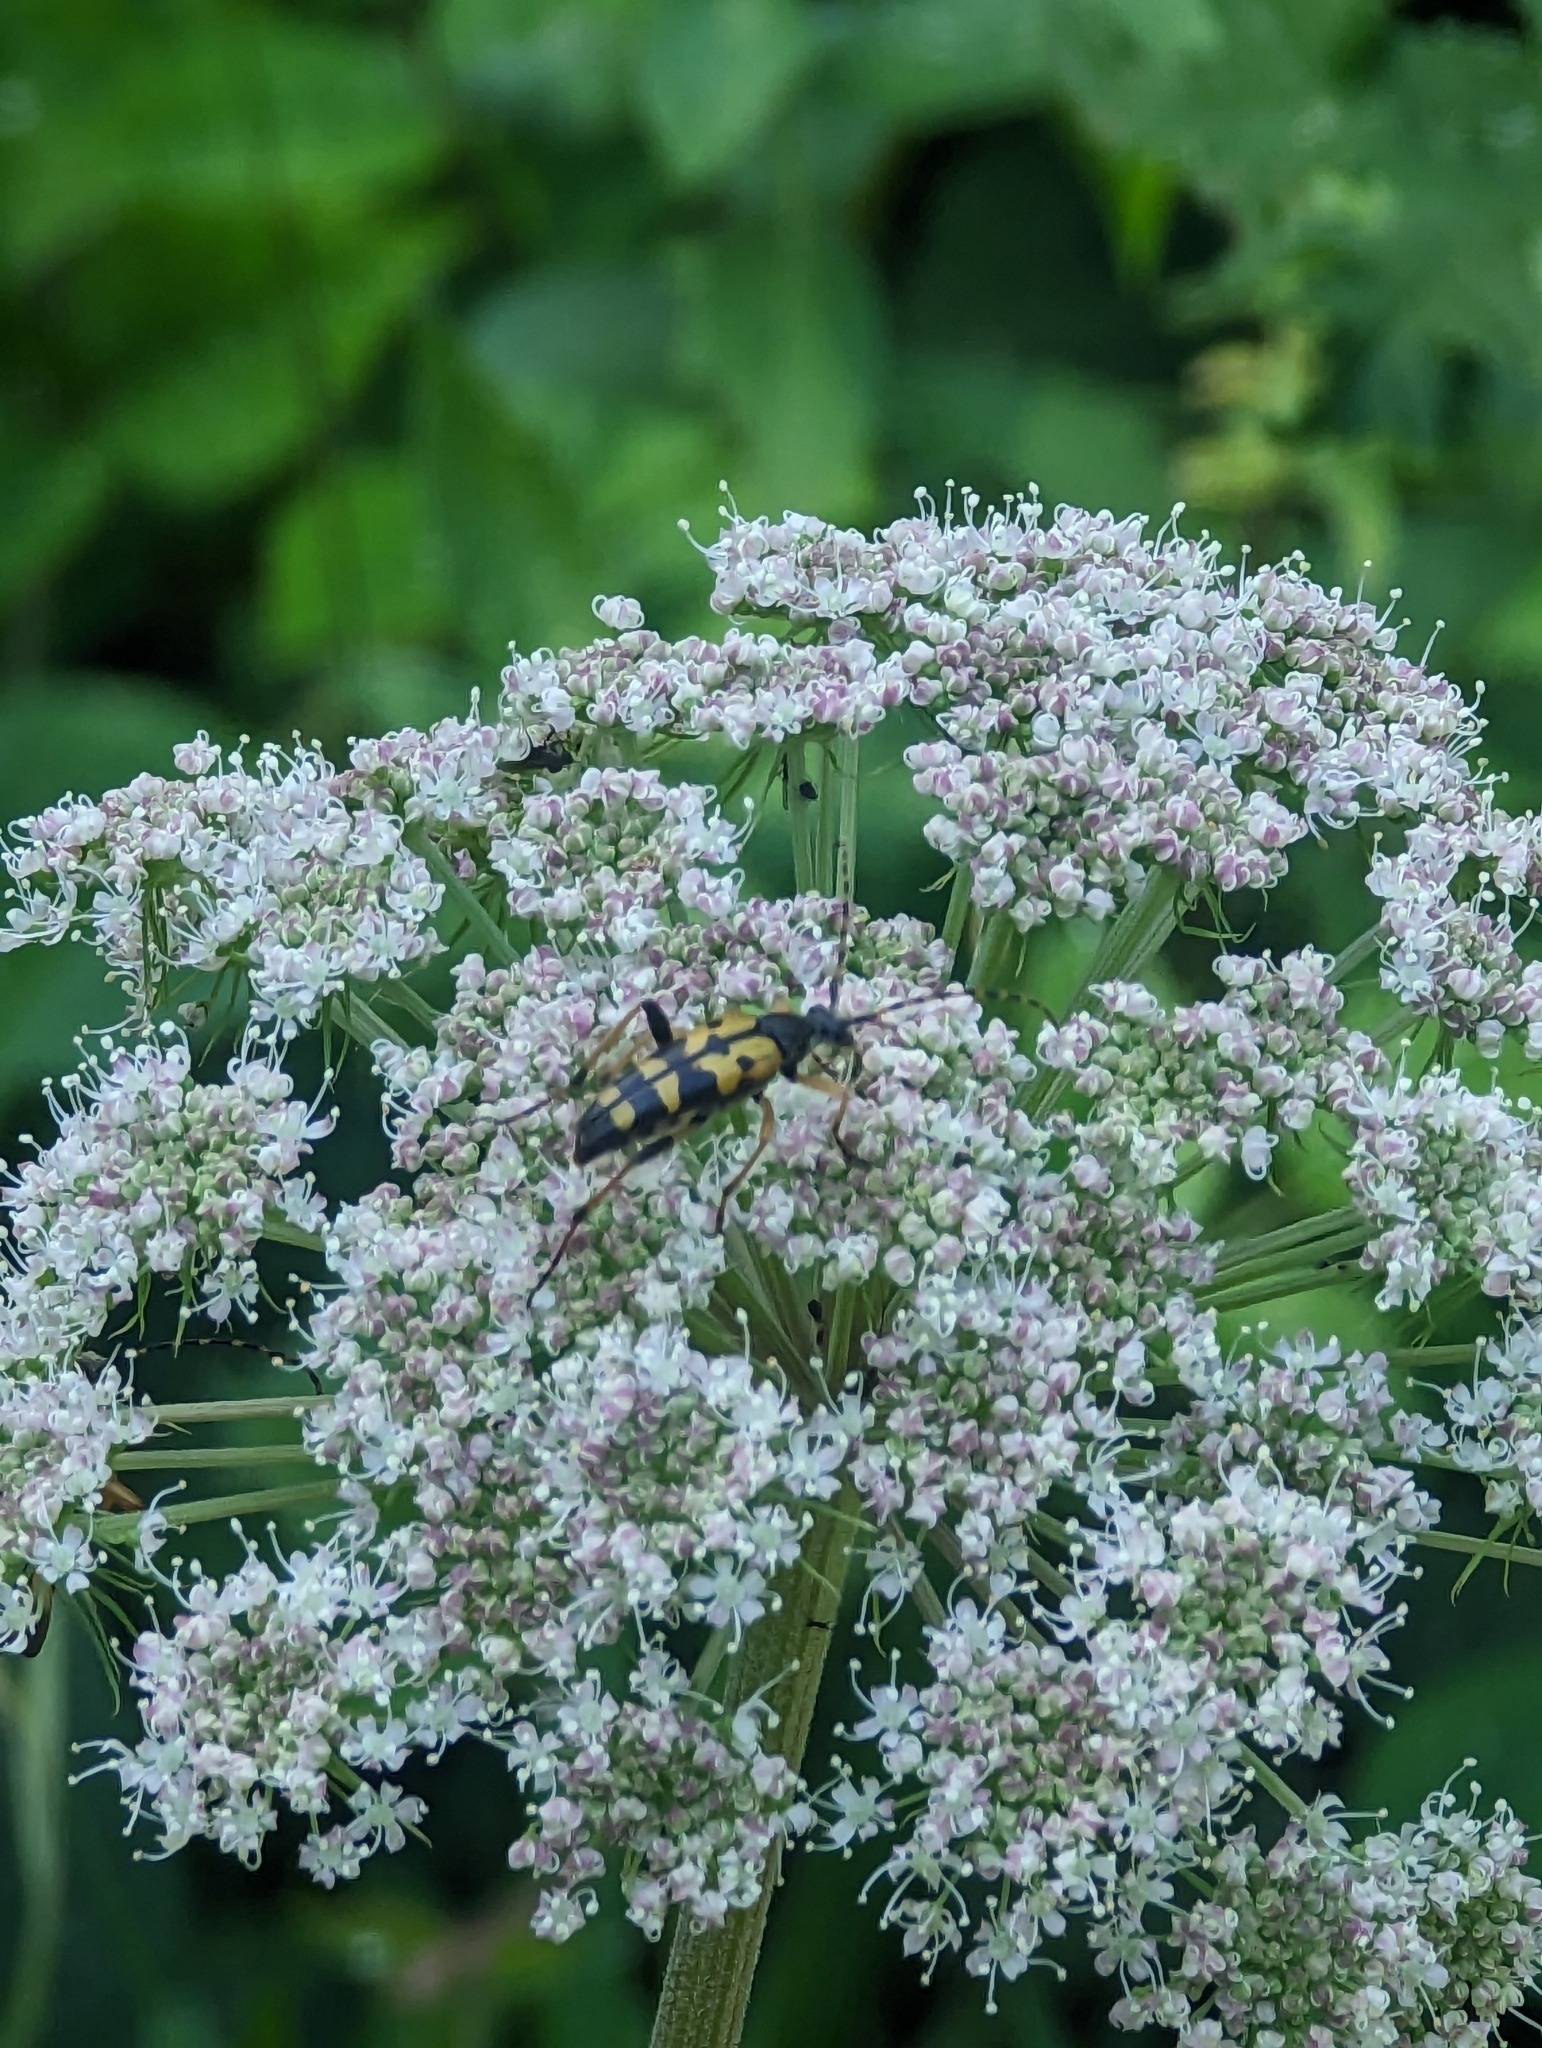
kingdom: Animalia
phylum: Arthropoda
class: Insecta
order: Coleoptera
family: Cerambycidae
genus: Rutpela
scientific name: Rutpela maculata
